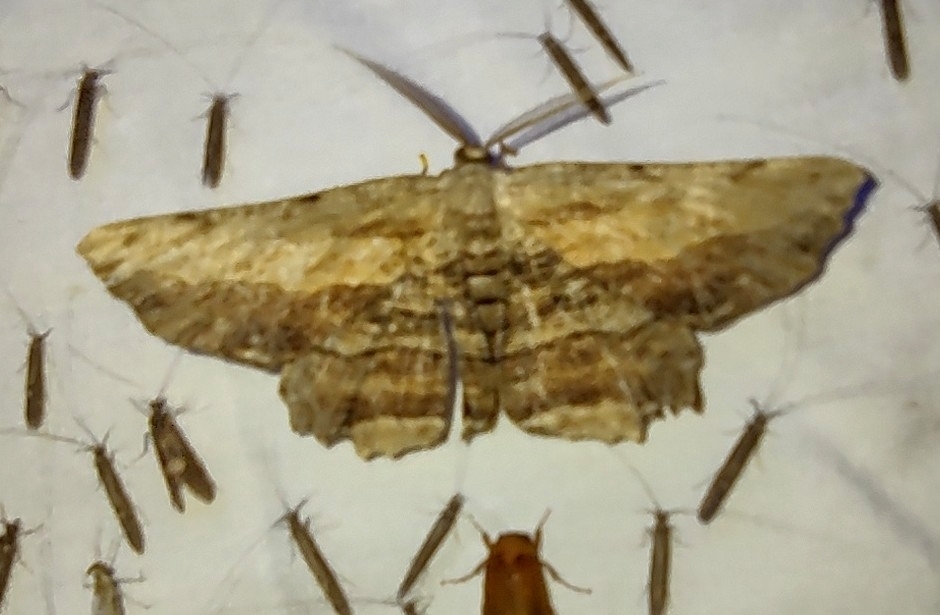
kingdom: Animalia
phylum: Arthropoda
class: Insecta
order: Lepidoptera
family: Geometridae
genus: Lytrosis
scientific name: Lytrosis unitaria
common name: Common lytrosis
